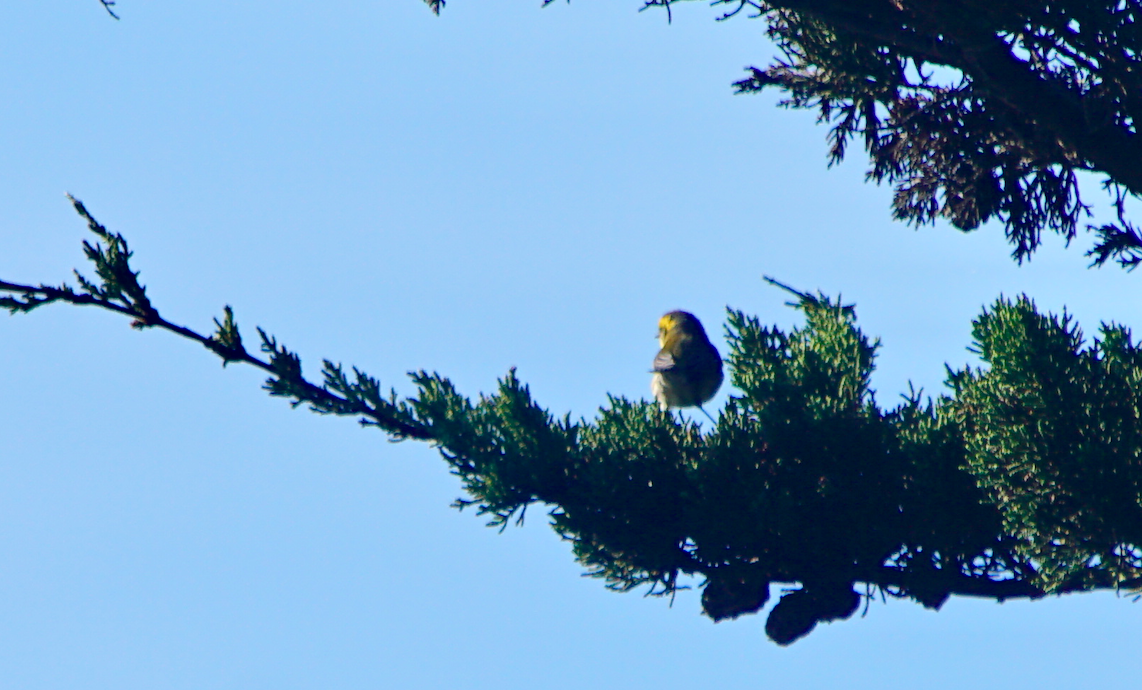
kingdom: Animalia
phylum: Chordata
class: Aves
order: Passeriformes
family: Parulidae
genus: Setophaga
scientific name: Setophaga townsendi
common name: Townsend's warbler
